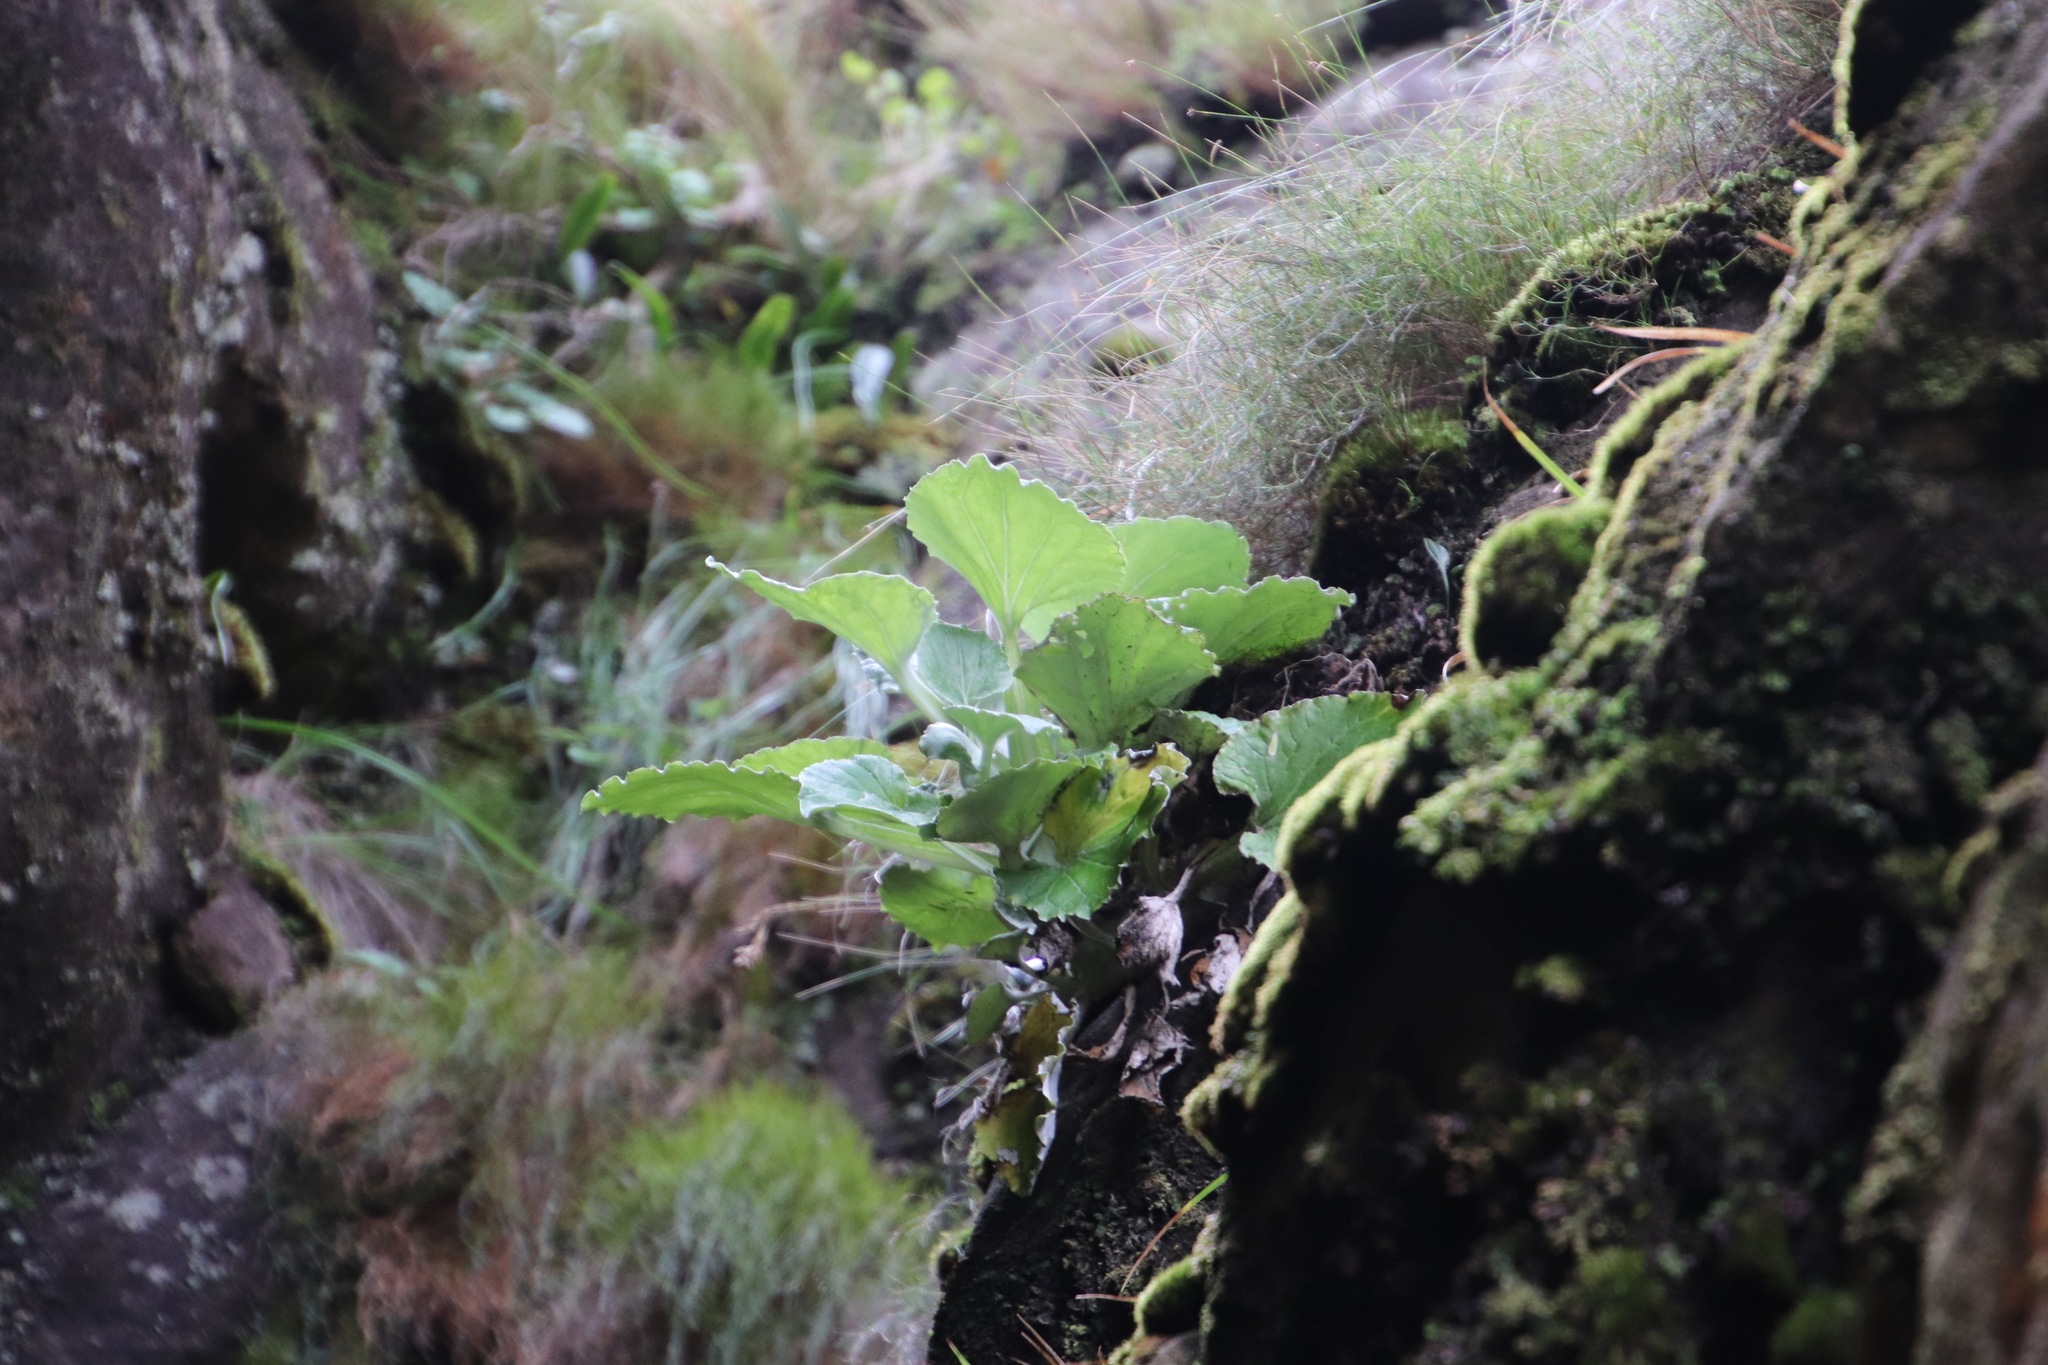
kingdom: Plantae
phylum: Tracheophyta
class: Magnoliopsida
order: Asterales
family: Asteraceae
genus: Senecio
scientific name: Senecio verbascifolius
